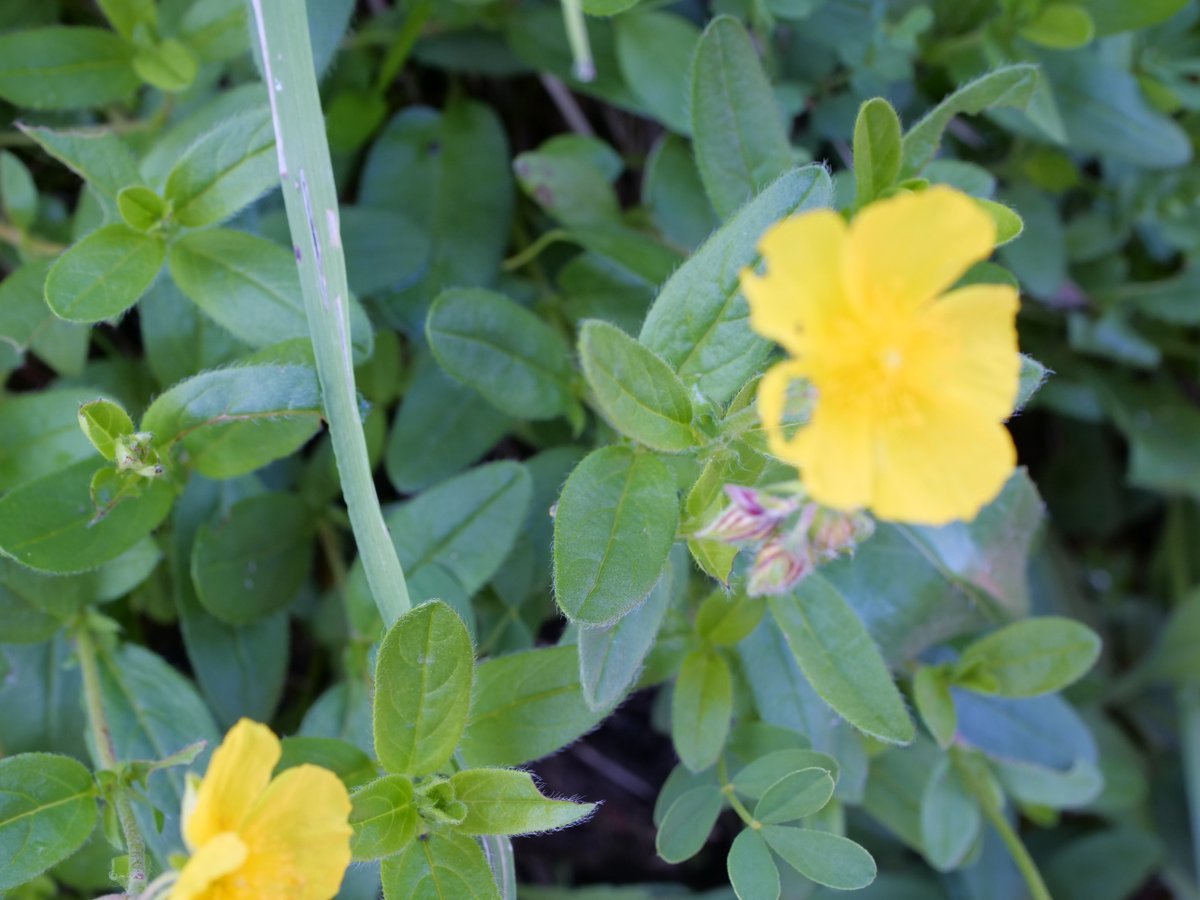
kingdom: Plantae
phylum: Tracheophyta
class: Magnoliopsida
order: Malvales
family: Cistaceae
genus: Helianthemum
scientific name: Helianthemum nummularium
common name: Common rock-rose
